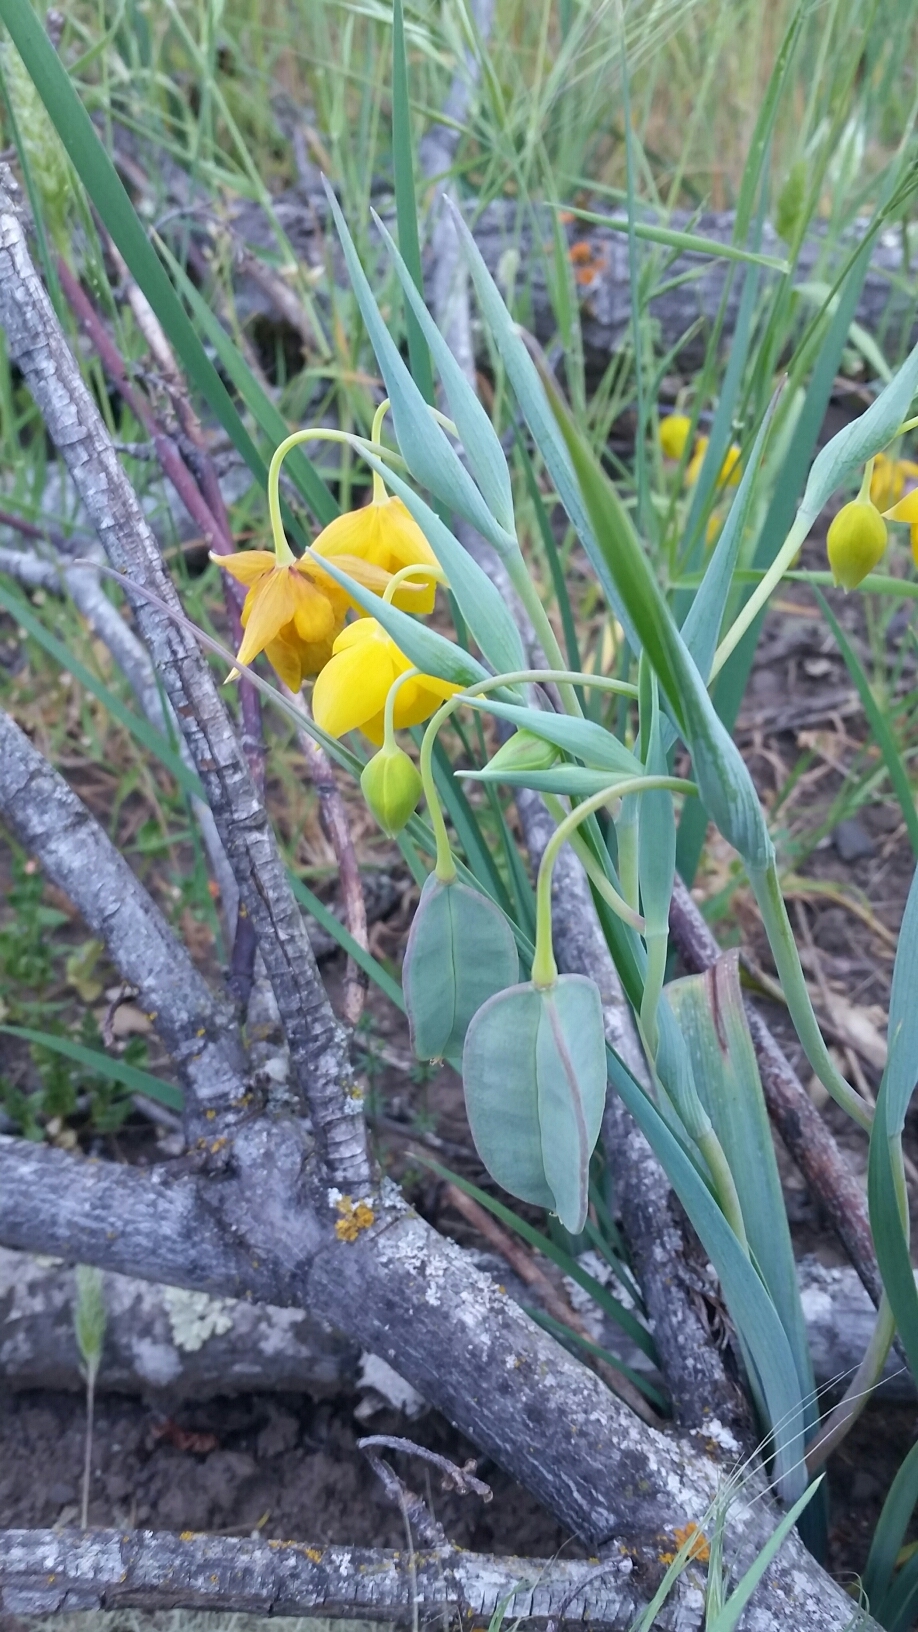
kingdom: Plantae
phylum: Tracheophyta
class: Liliopsida
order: Liliales
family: Liliaceae
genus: Calochortus
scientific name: Calochortus amabilis
